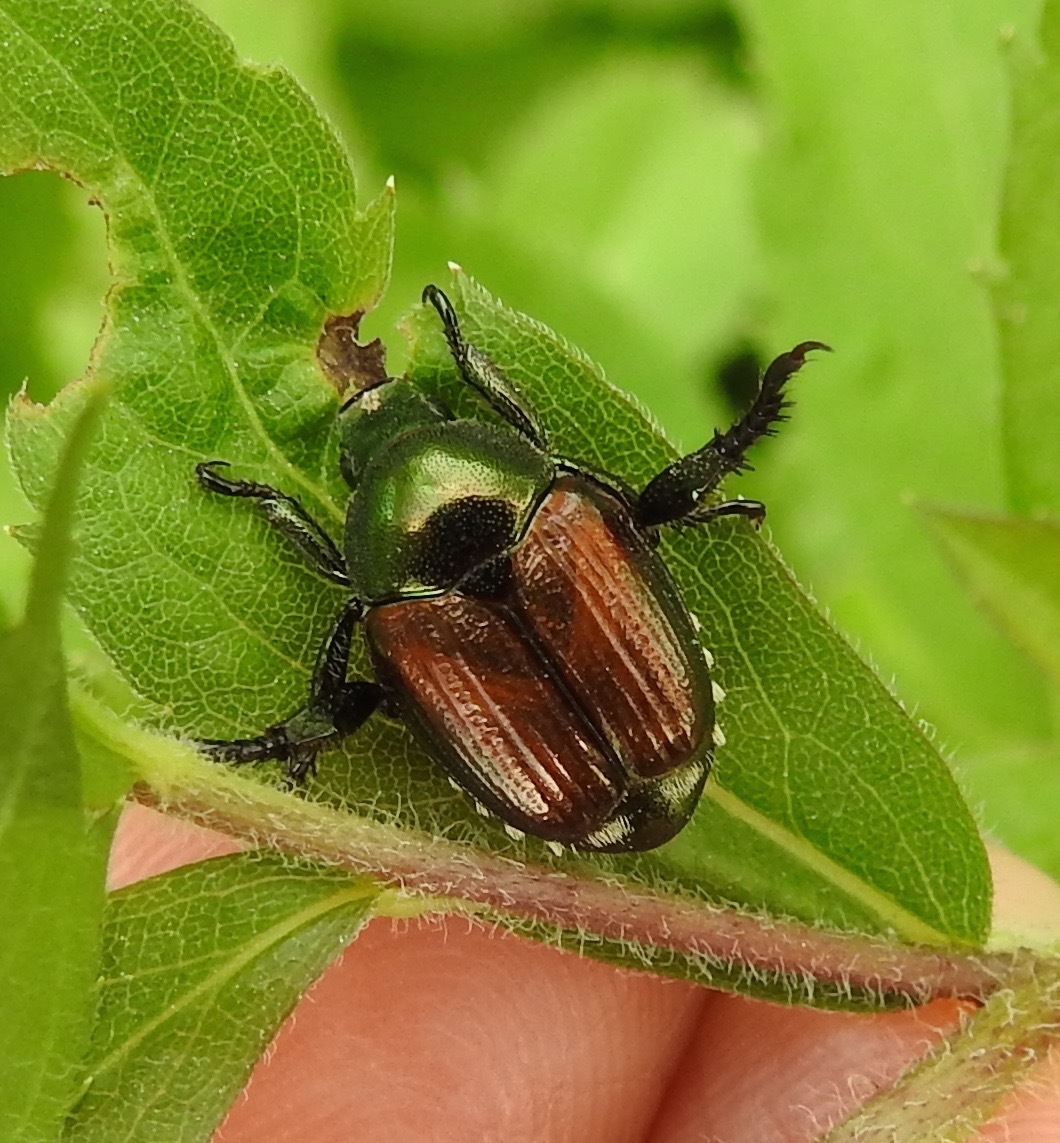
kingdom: Animalia
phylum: Arthropoda
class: Insecta
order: Coleoptera
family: Scarabaeidae
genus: Popillia
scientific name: Popillia japonica
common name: Japanese beetle
